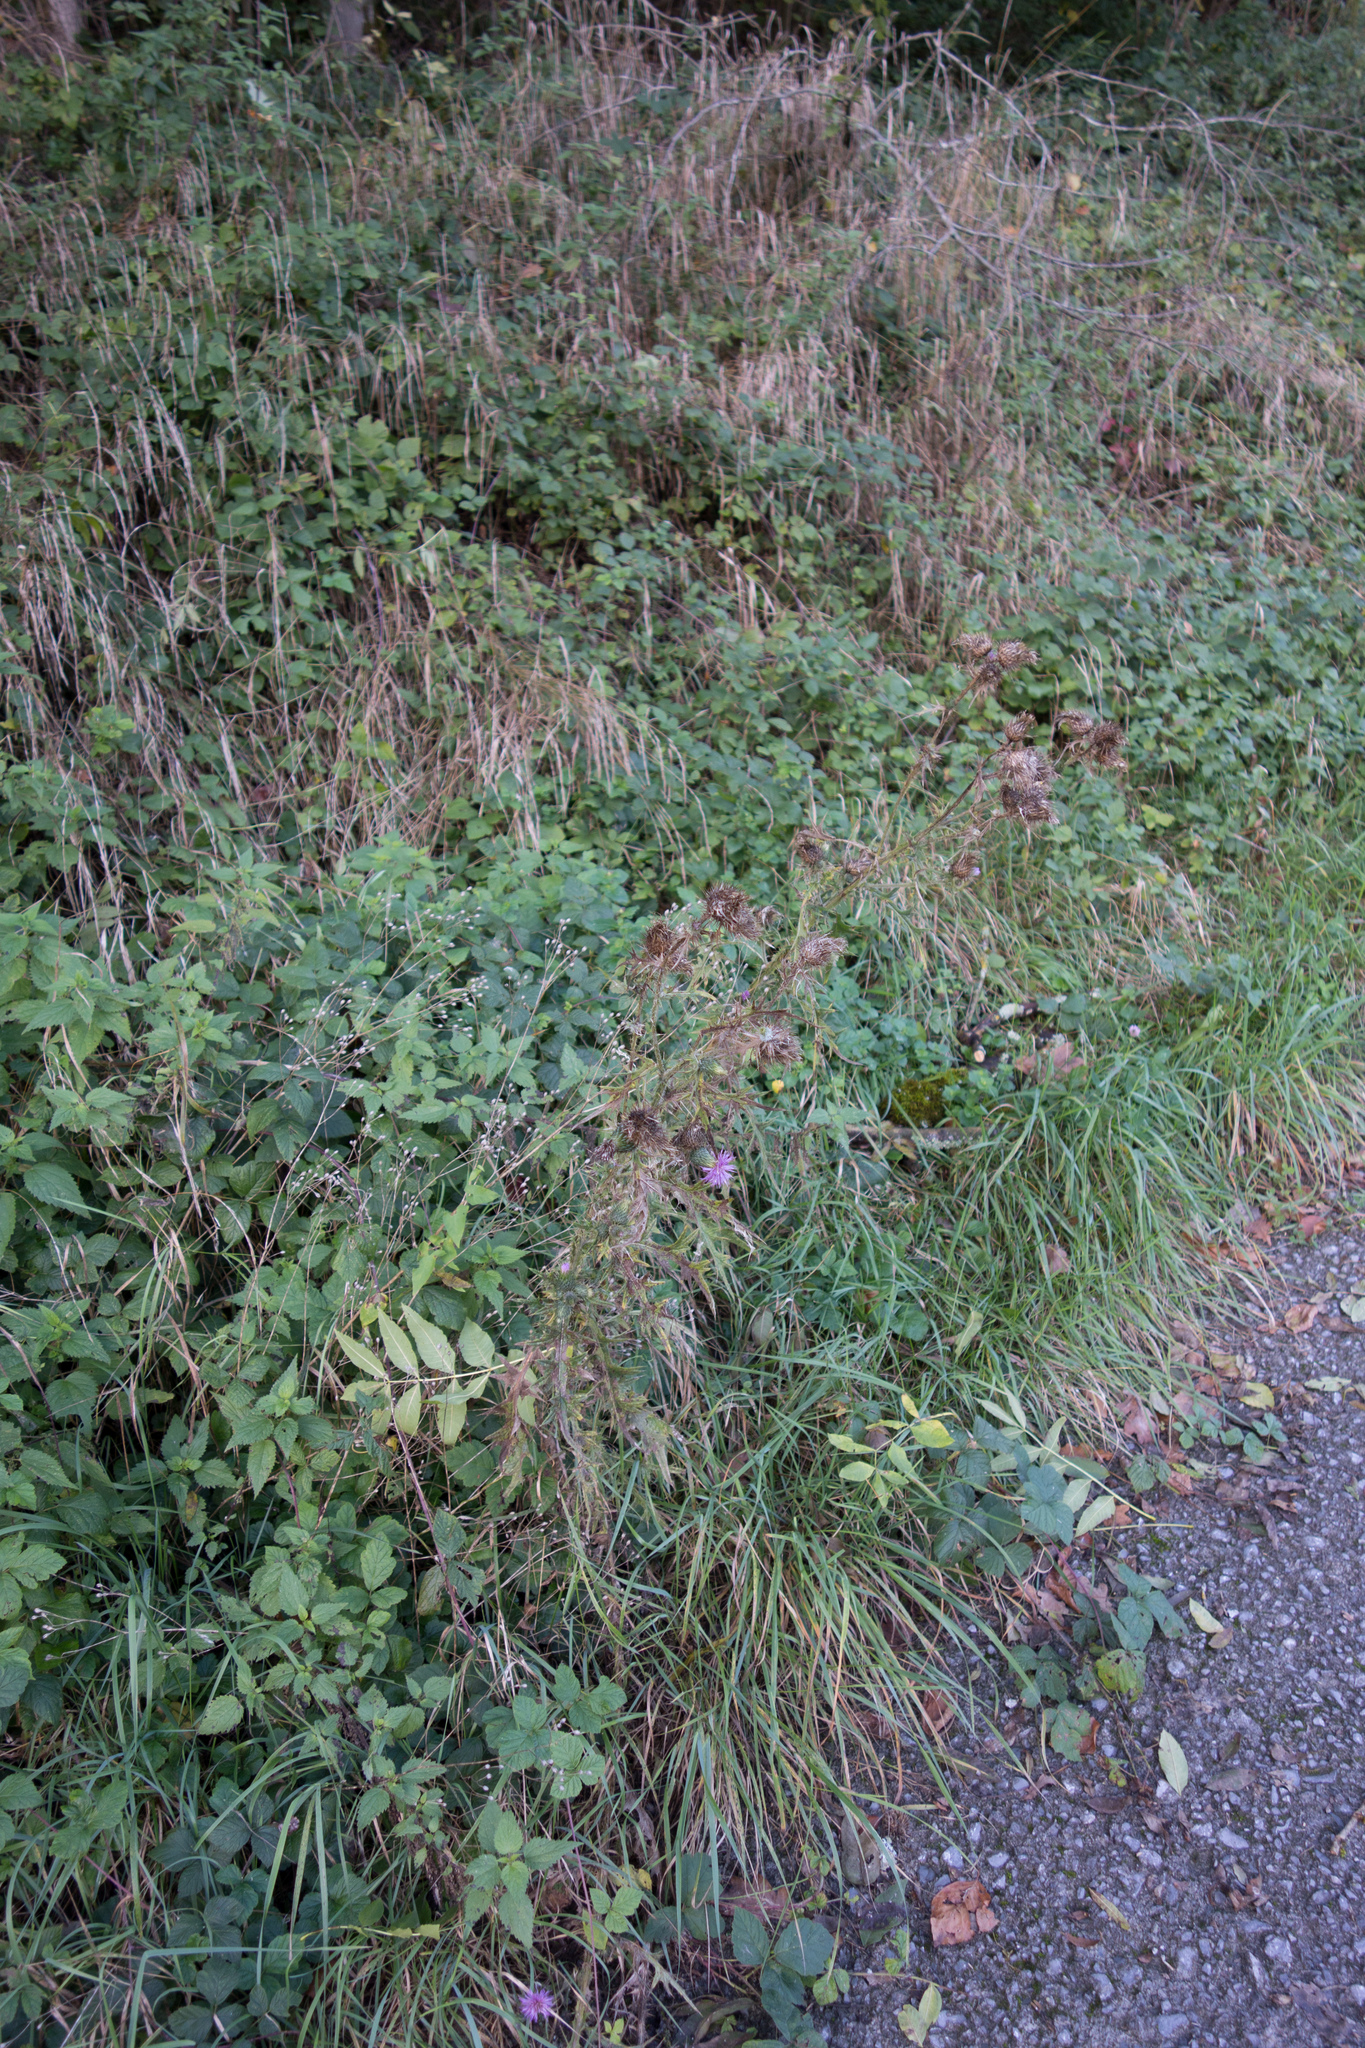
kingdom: Plantae
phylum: Tracheophyta
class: Magnoliopsida
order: Asterales
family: Asteraceae
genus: Cirsium
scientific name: Cirsium vulgare
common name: Bull thistle
